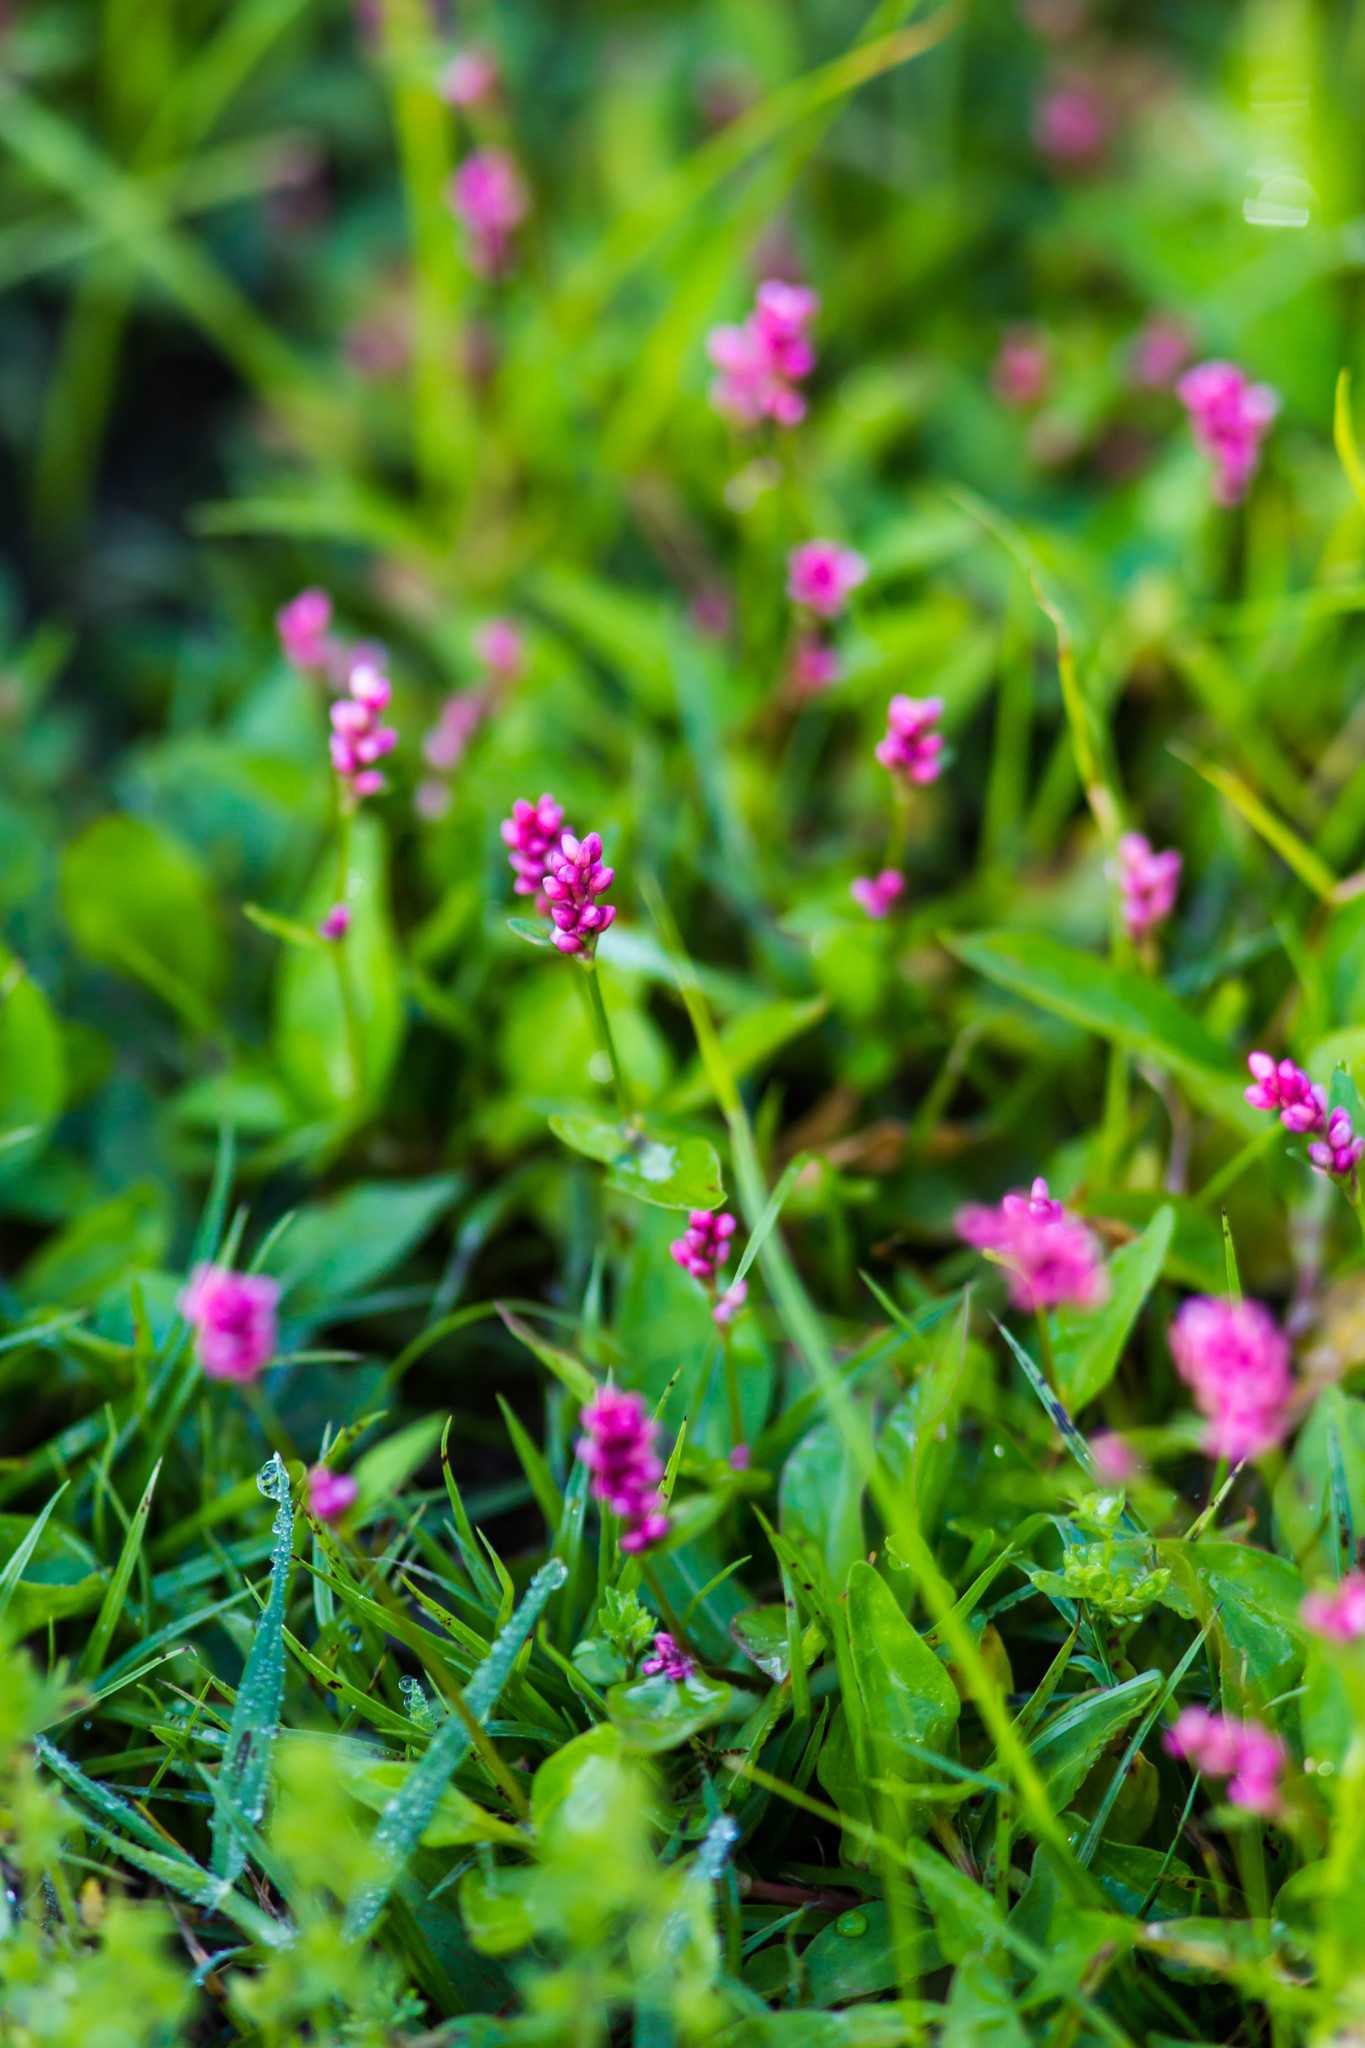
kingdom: Plantae
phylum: Tracheophyta
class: Magnoliopsida
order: Caryophyllales
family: Polygonaceae
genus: Persicaria
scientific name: Persicaria longiseta
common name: Bristly lady's-thumb
